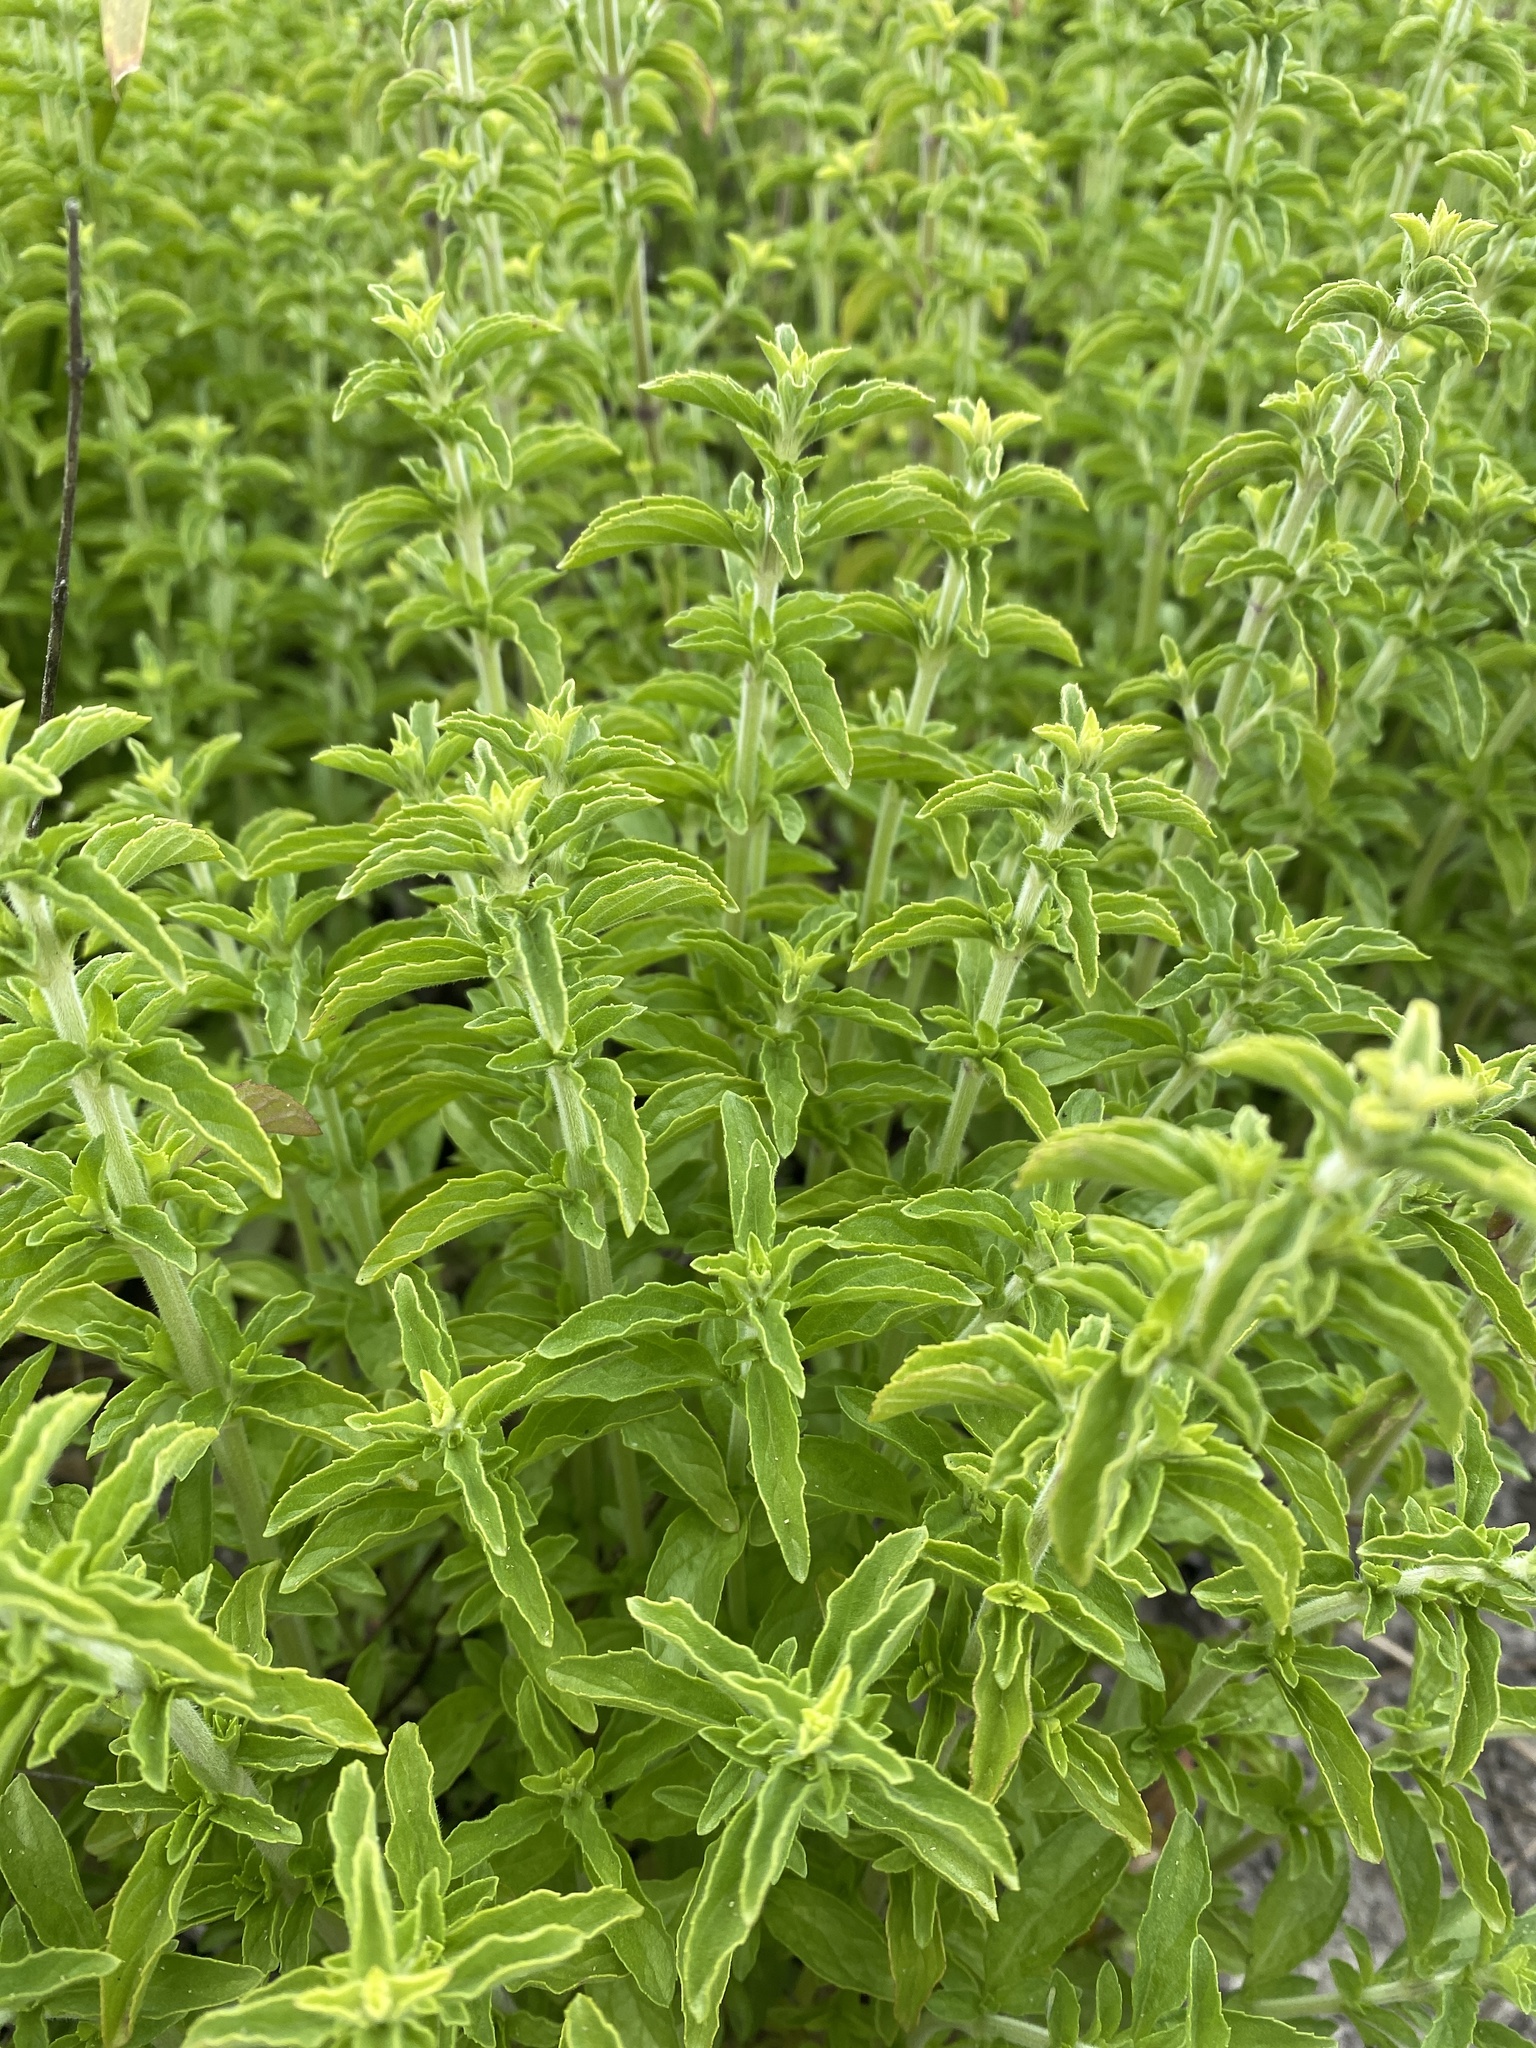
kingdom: Plantae
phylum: Tracheophyta
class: Magnoliopsida
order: Lamiales
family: Lamiaceae
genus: Mentha
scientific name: Mentha pulegium
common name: Pennyroyal
